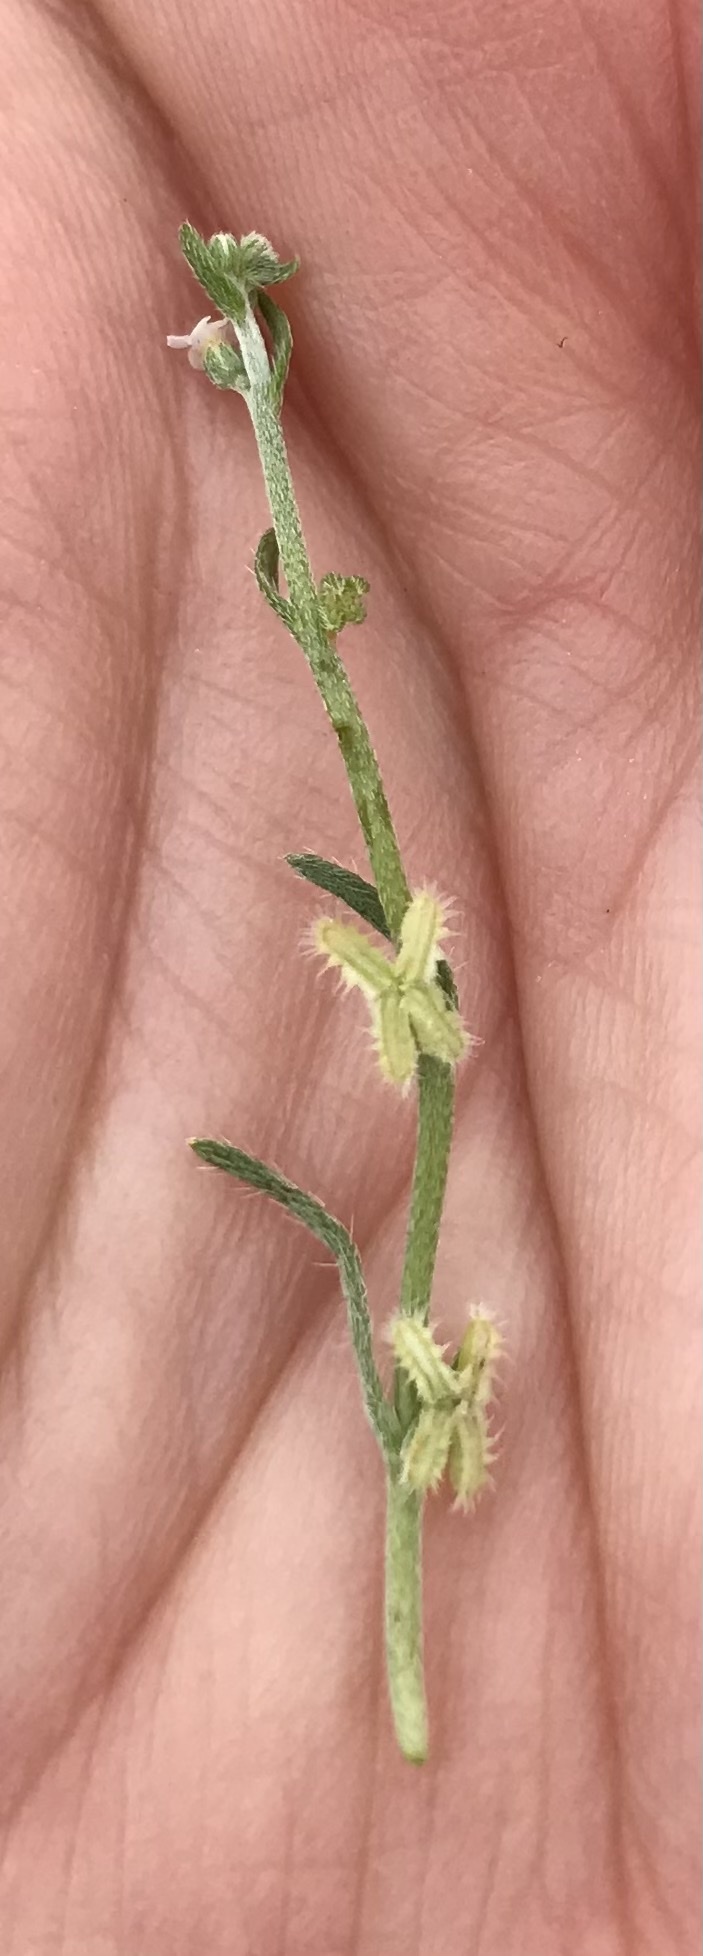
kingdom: Plantae
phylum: Tracheophyta
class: Magnoliopsida
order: Boraginales
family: Boraginaceae
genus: Pectocarya
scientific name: Pectocarya linearis
